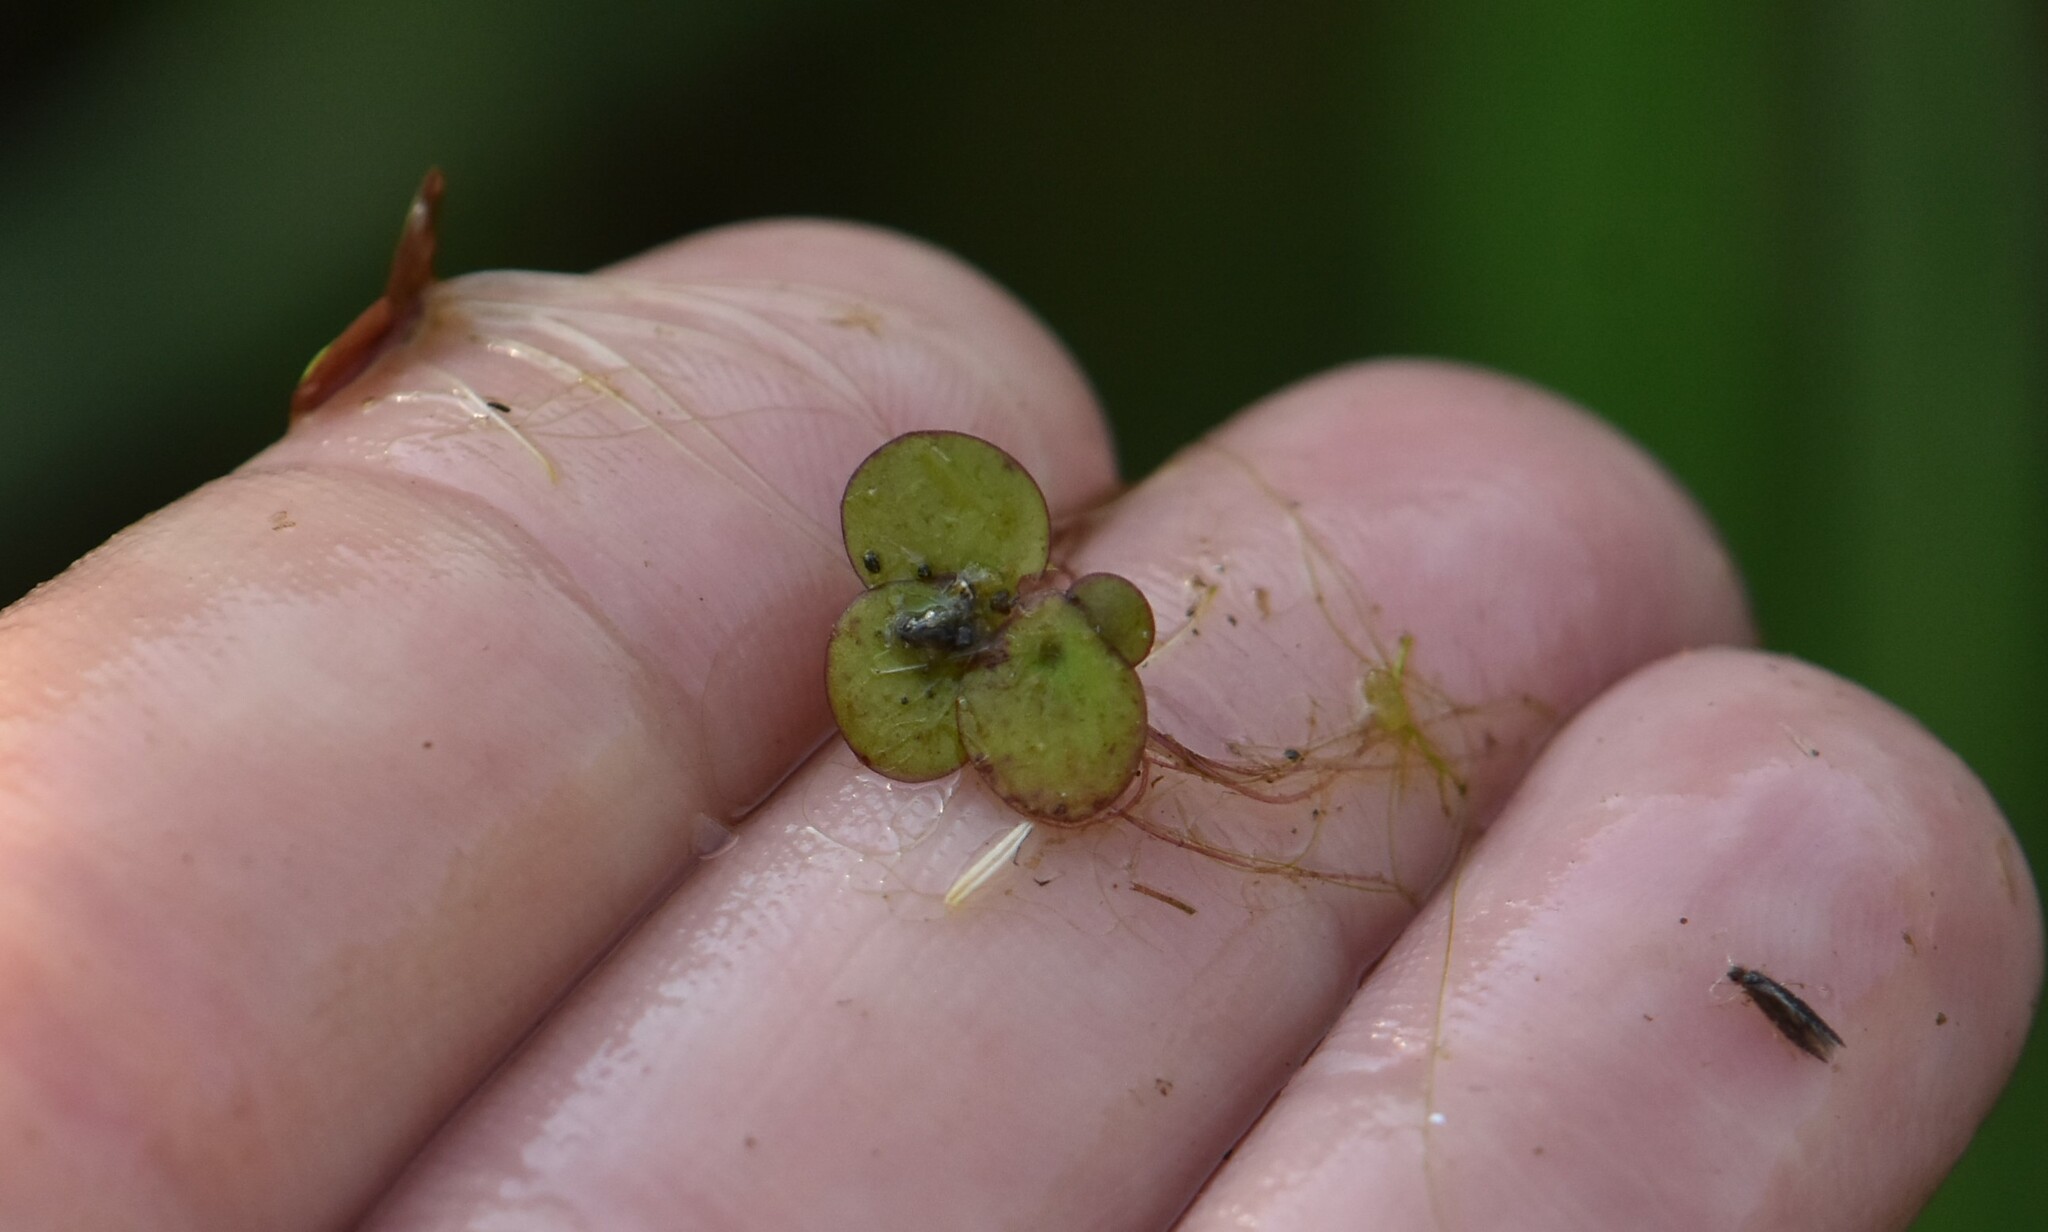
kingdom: Plantae
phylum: Tracheophyta
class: Liliopsida
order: Alismatales
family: Araceae
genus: Spirodela
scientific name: Spirodela polyrhiza
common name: Great duckweed
